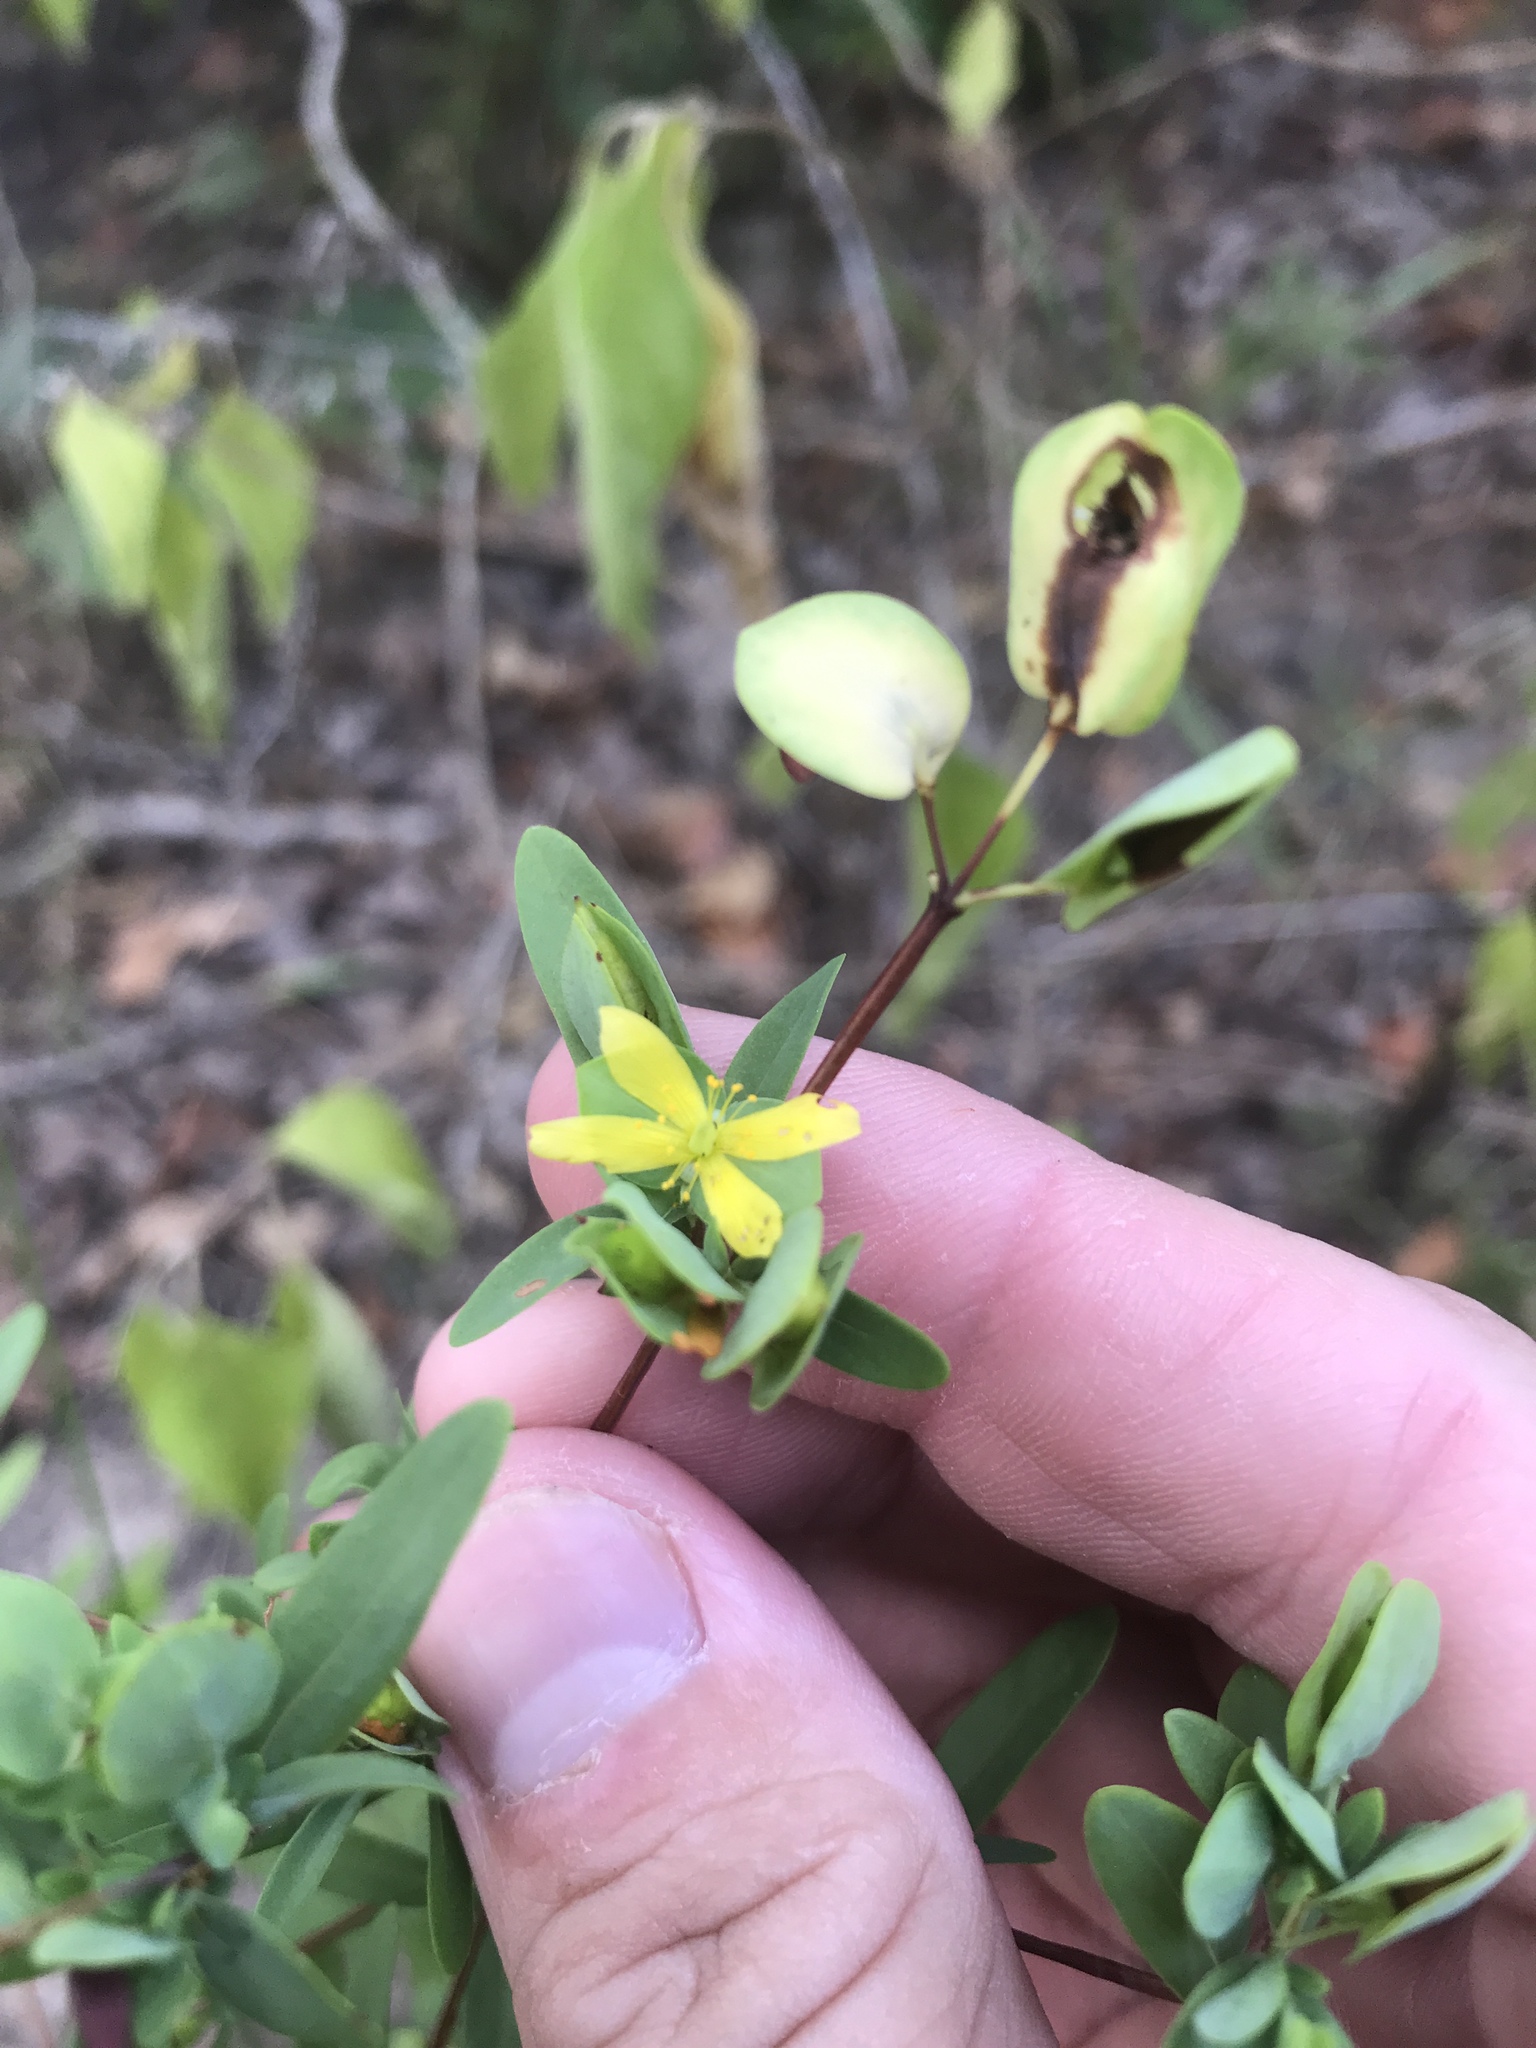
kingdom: Plantae
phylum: Tracheophyta
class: Magnoliopsida
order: Malpighiales
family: Hypericaceae
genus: Hypericum
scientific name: Hypericum hypericoides
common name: St. andrew's cross
